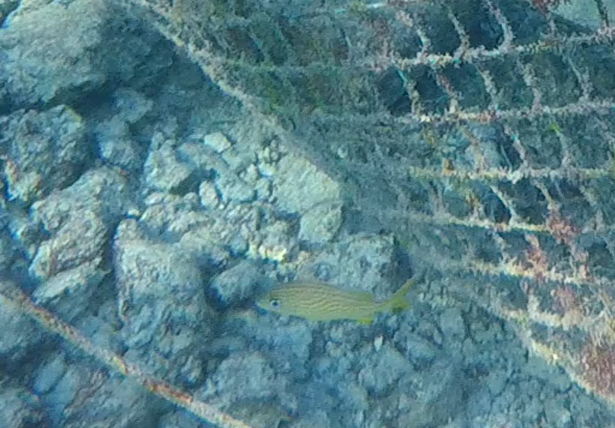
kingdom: Animalia
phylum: Chordata
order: Perciformes
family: Haemulidae
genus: Haemulon
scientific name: Haemulon flavolineatum
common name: French grunt
